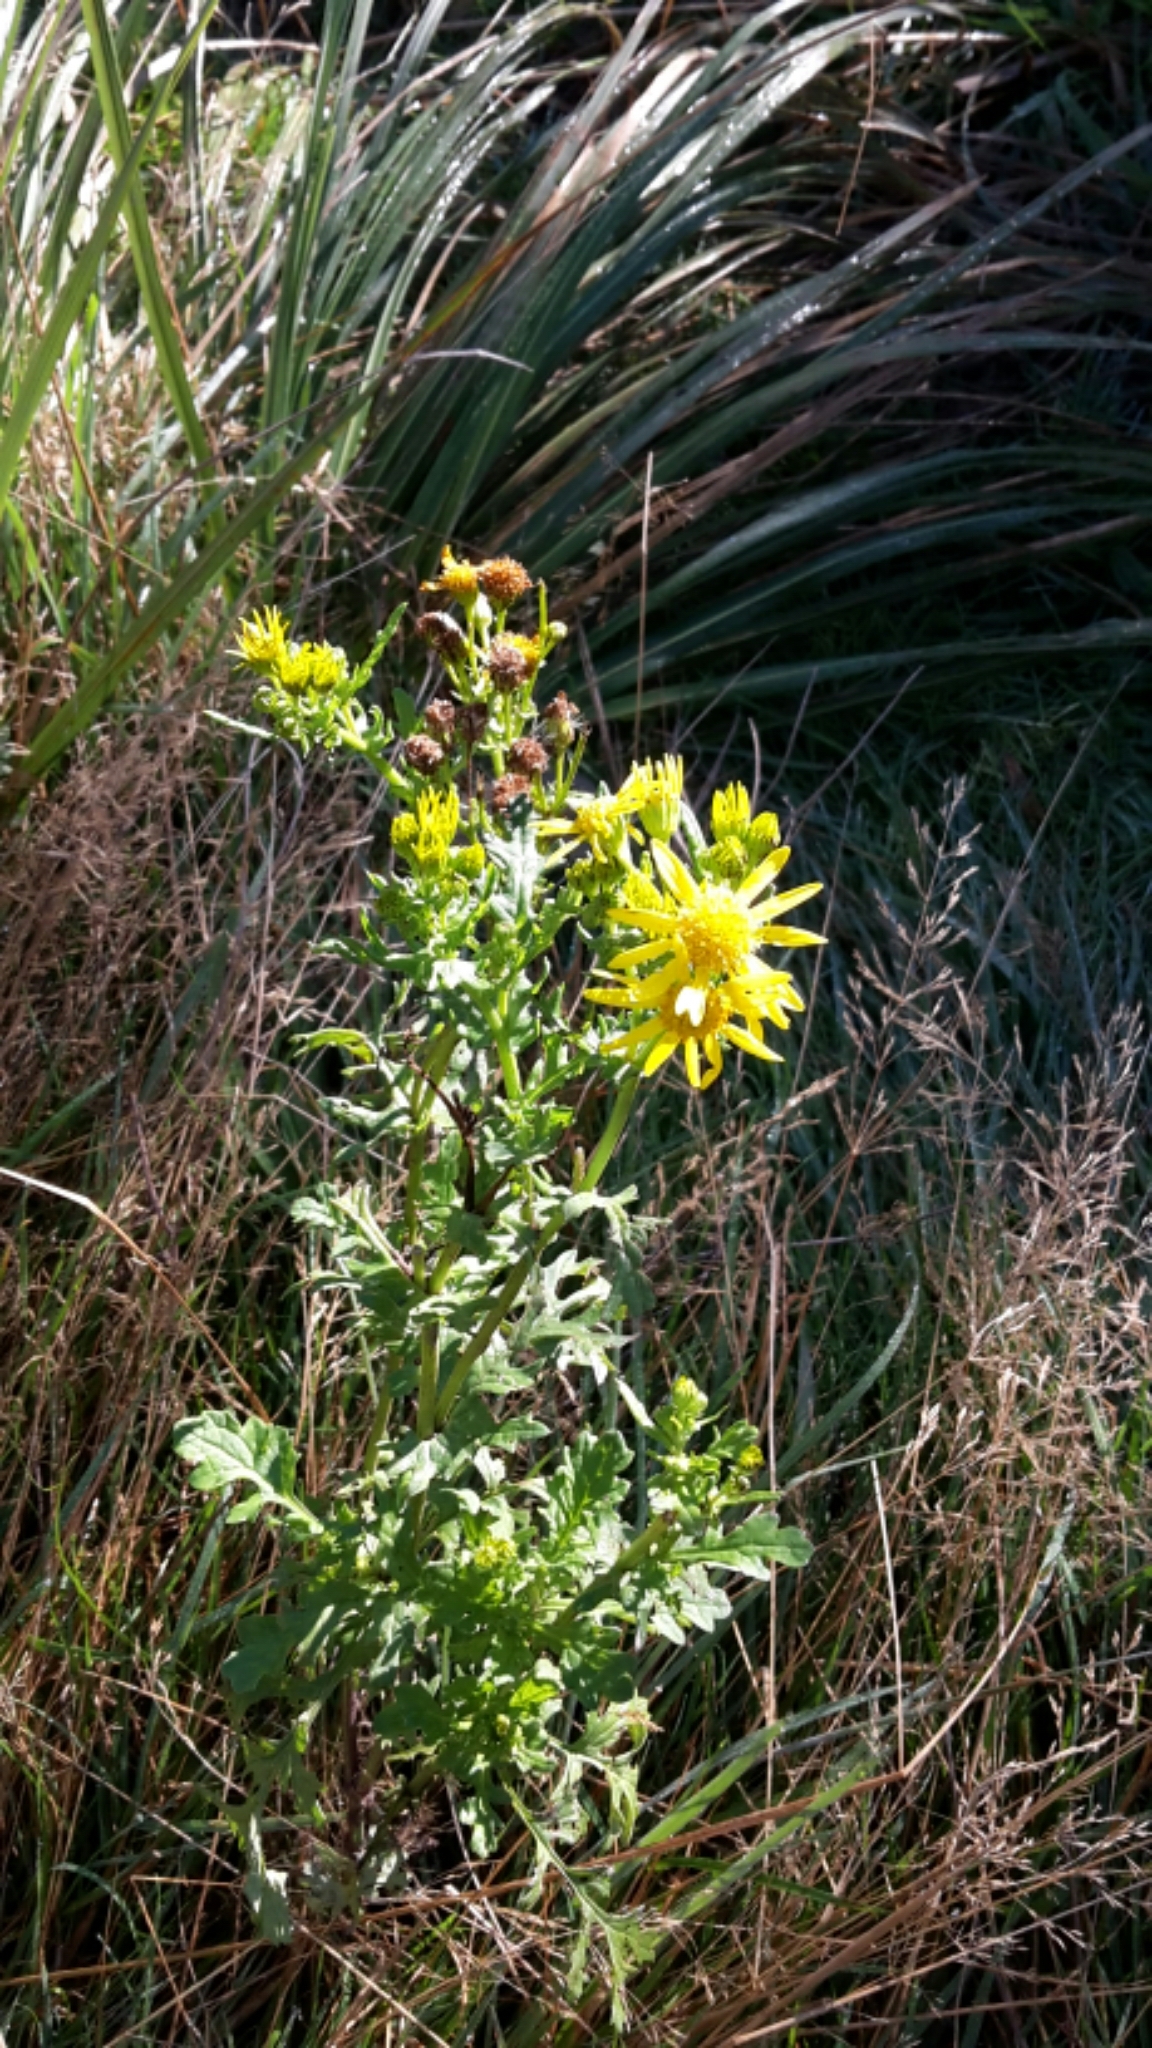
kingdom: Plantae
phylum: Tracheophyta
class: Magnoliopsida
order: Asterales
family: Asteraceae
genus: Jacobaea
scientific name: Jacobaea vulgaris
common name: Stinking willie
